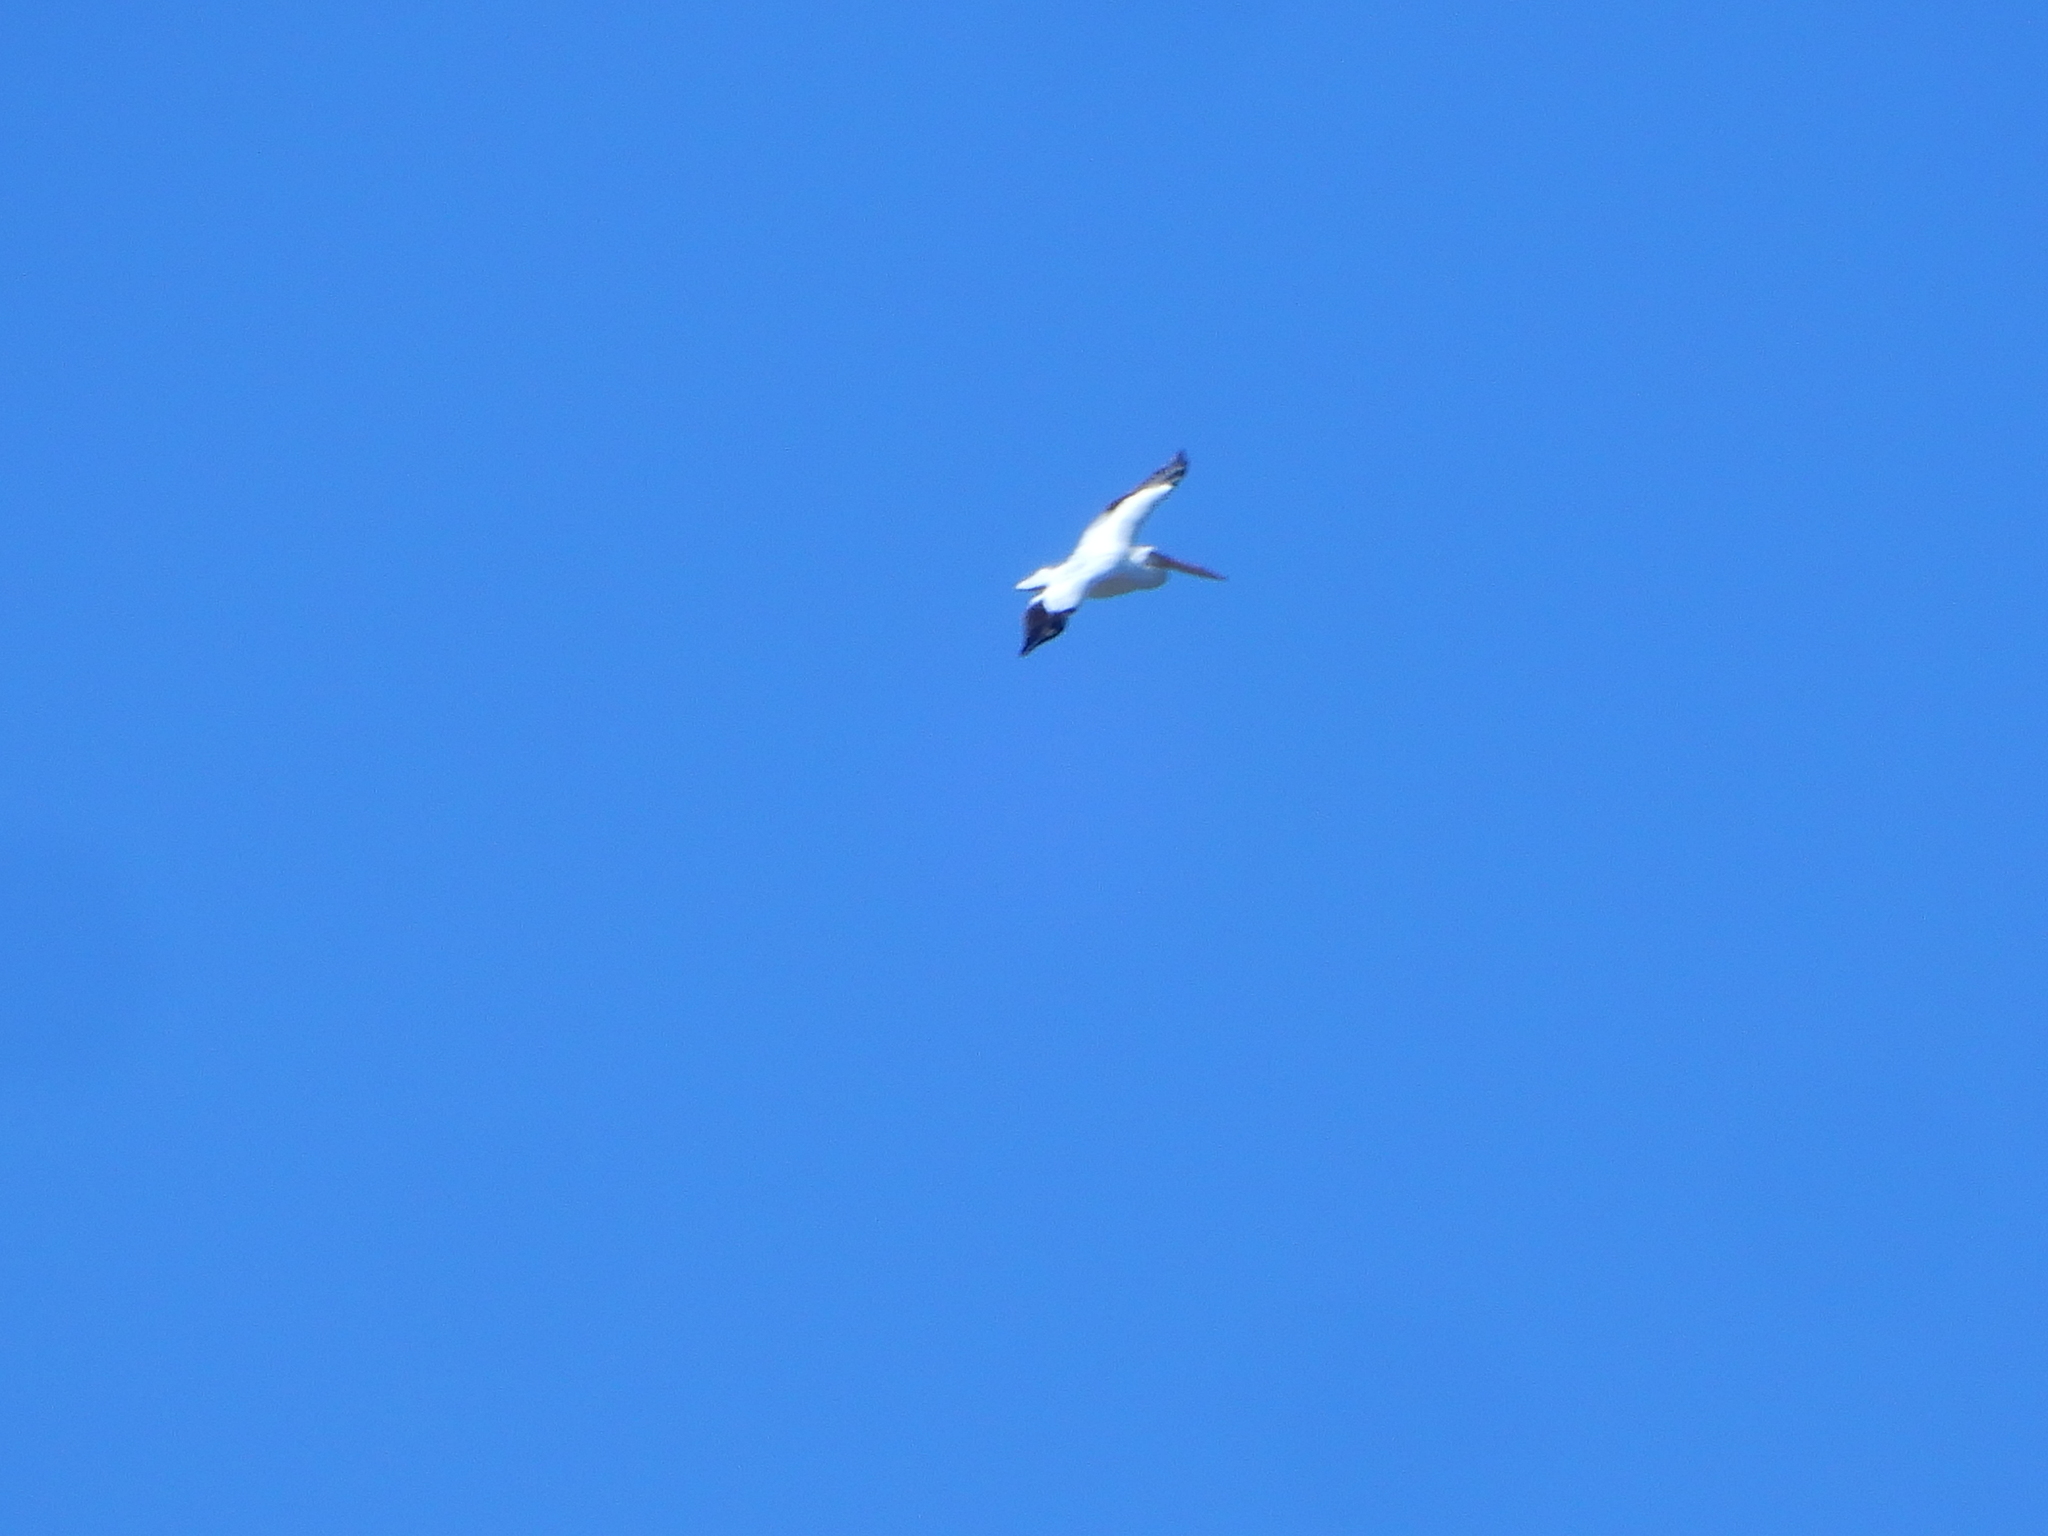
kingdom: Animalia
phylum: Chordata
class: Aves
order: Pelecaniformes
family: Pelecanidae
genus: Pelecanus
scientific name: Pelecanus erythrorhynchos
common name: American white pelican
